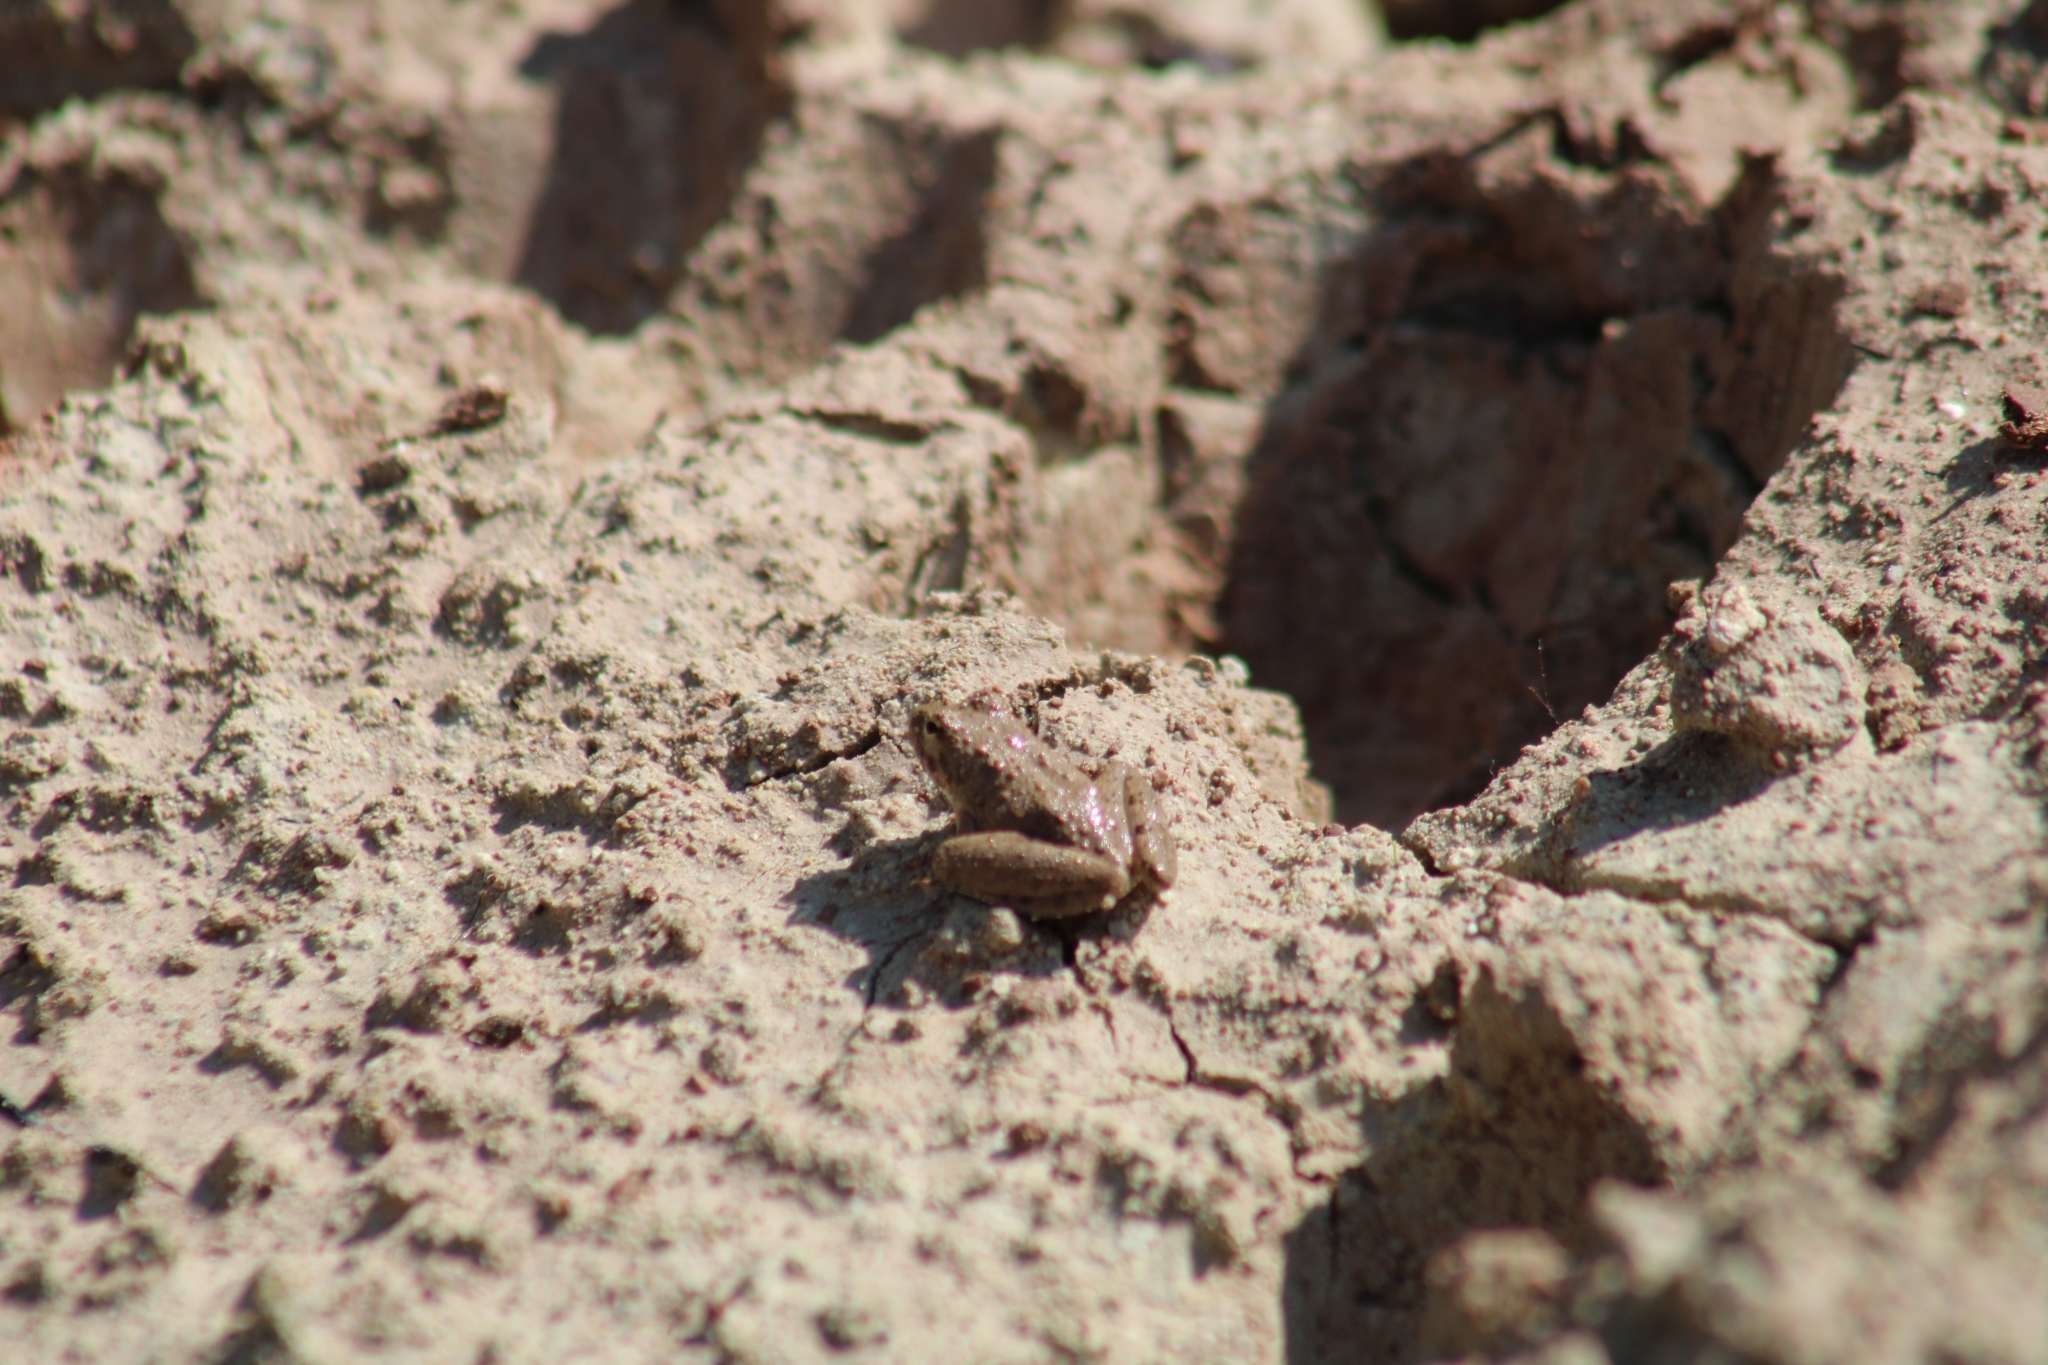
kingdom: Animalia
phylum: Chordata
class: Amphibia
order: Anura
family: Hylidae
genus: Acris
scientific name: Acris blanchardi
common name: Blanchard's cricket frog
